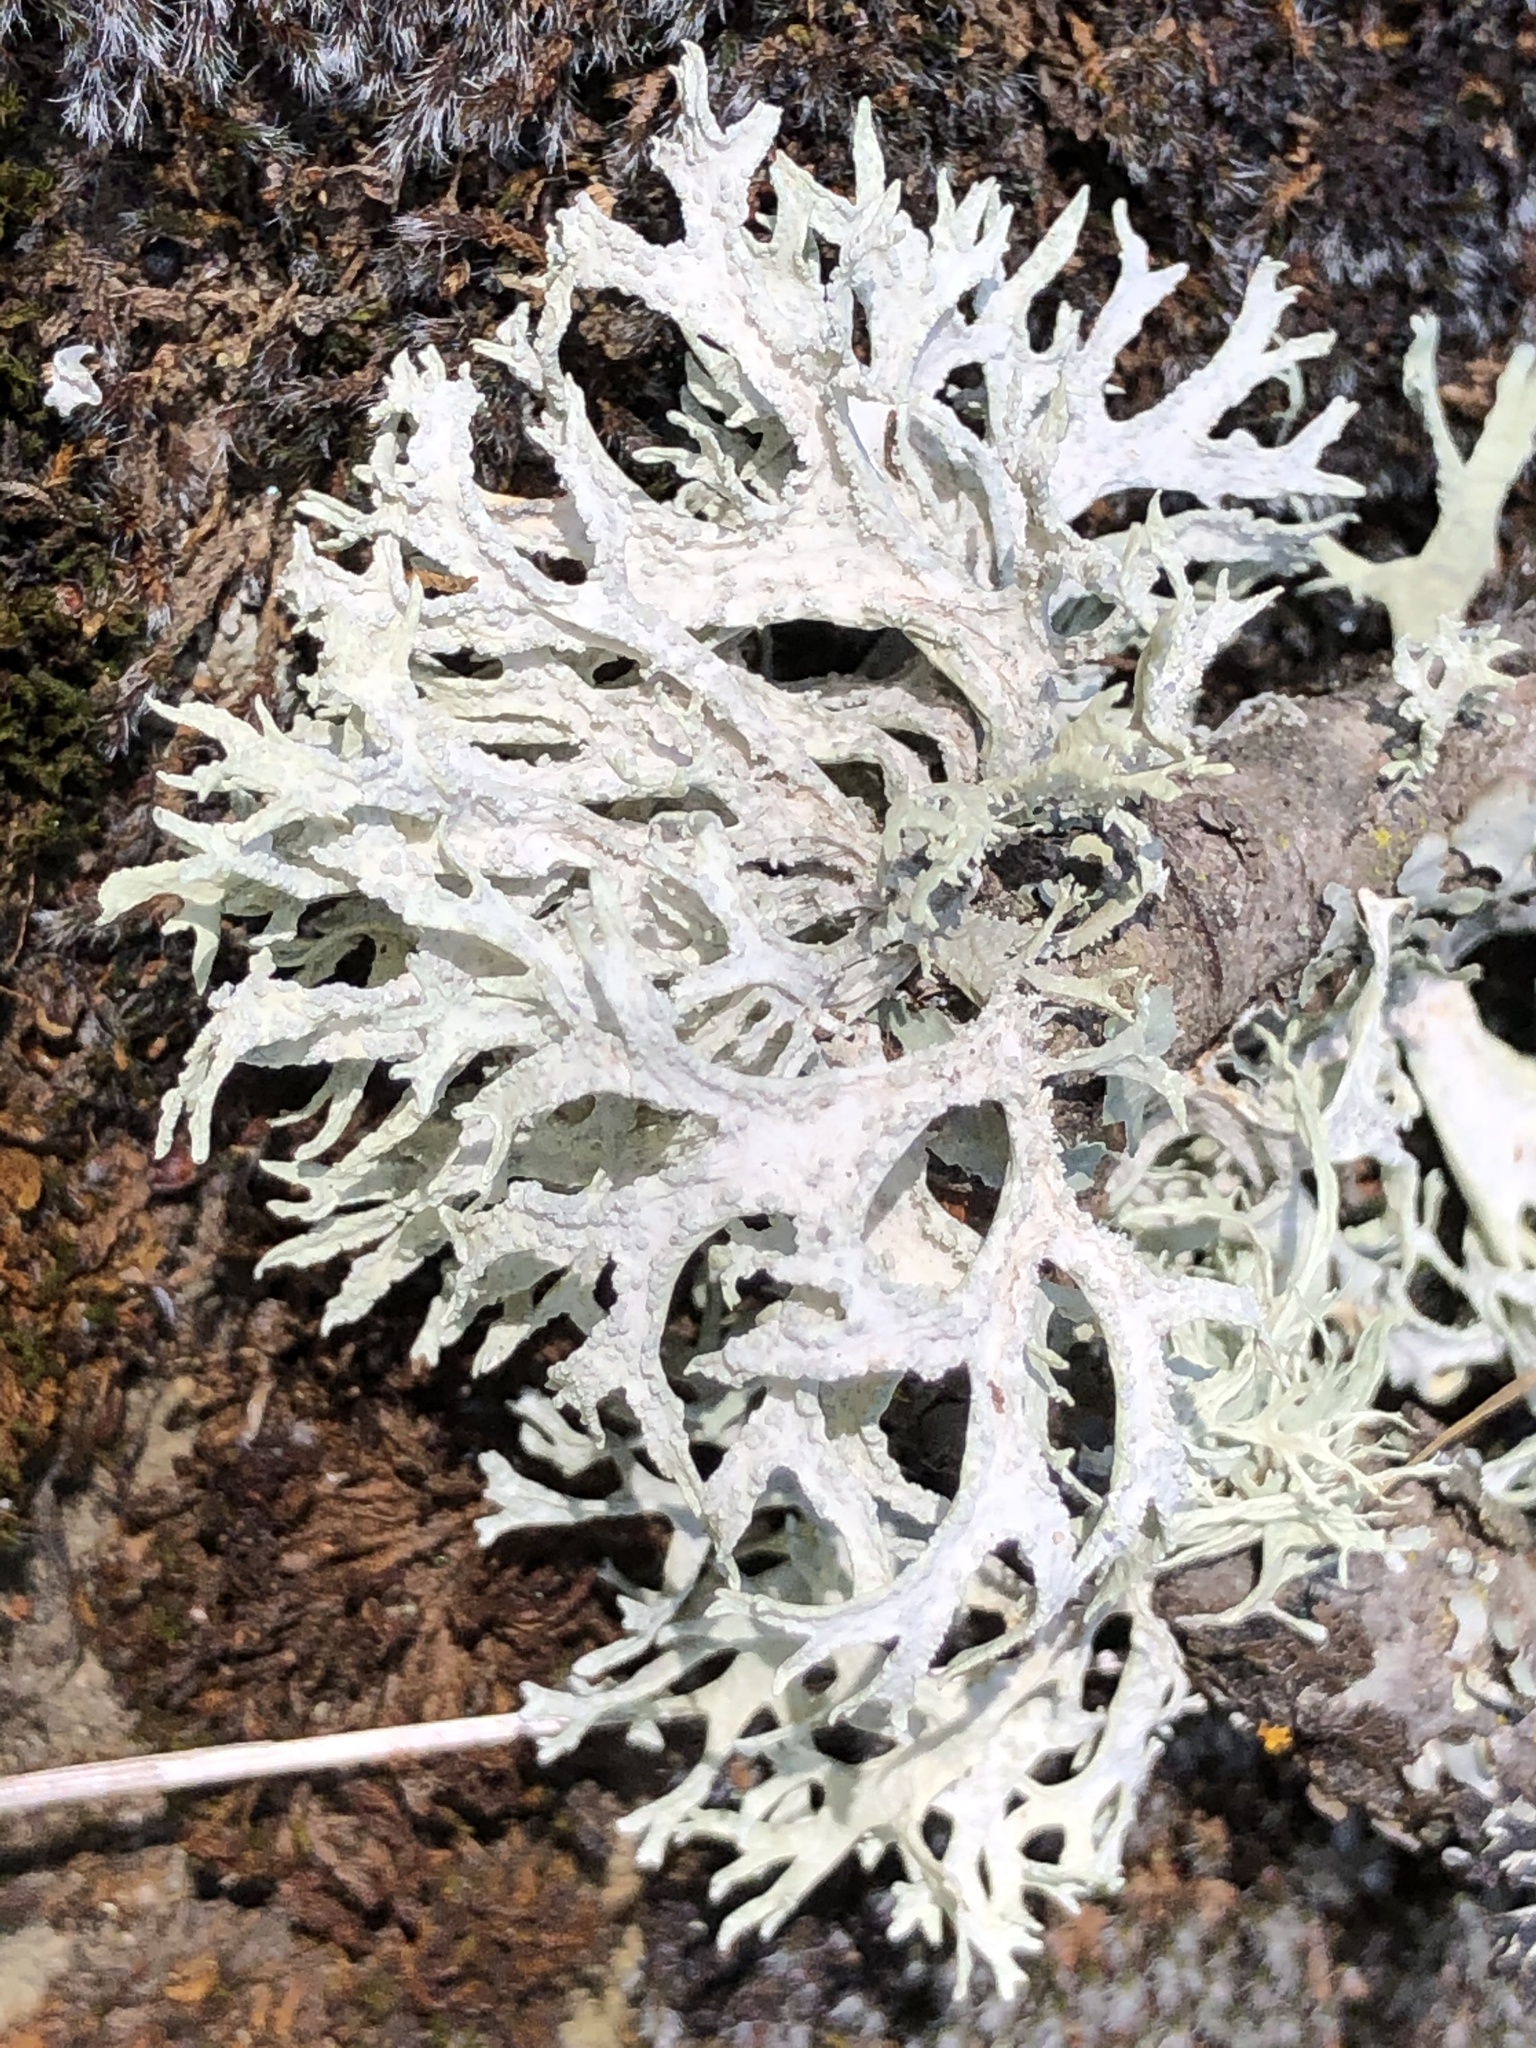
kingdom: Fungi
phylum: Ascomycota
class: Lecanoromycetes
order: Lecanorales
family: Parmeliaceae
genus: Evernia
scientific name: Evernia prunastri
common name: Oak moss
